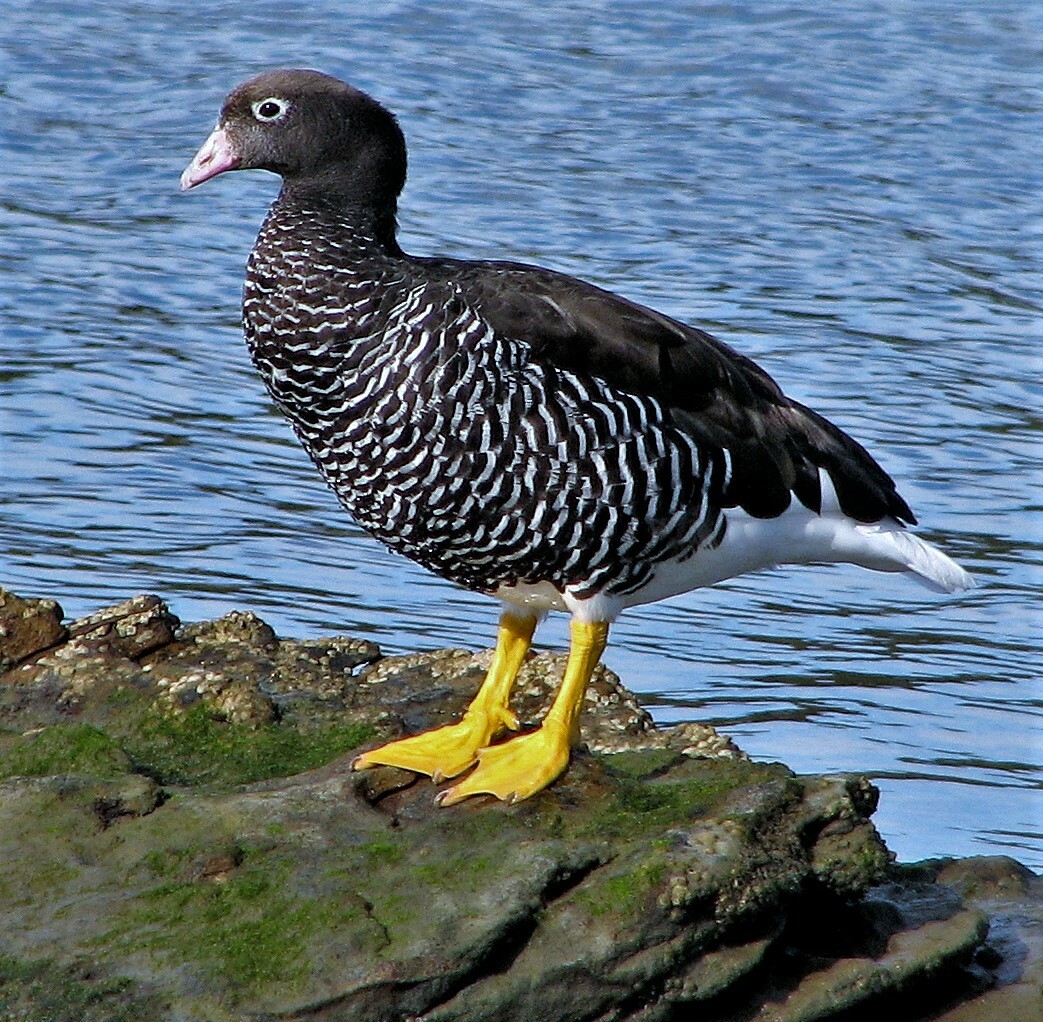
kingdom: Animalia
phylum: Chordata
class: Aves
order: Anseriformes
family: Anatidae
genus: Chloephaga
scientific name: Chloephaga hybrida
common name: Kelp goose
